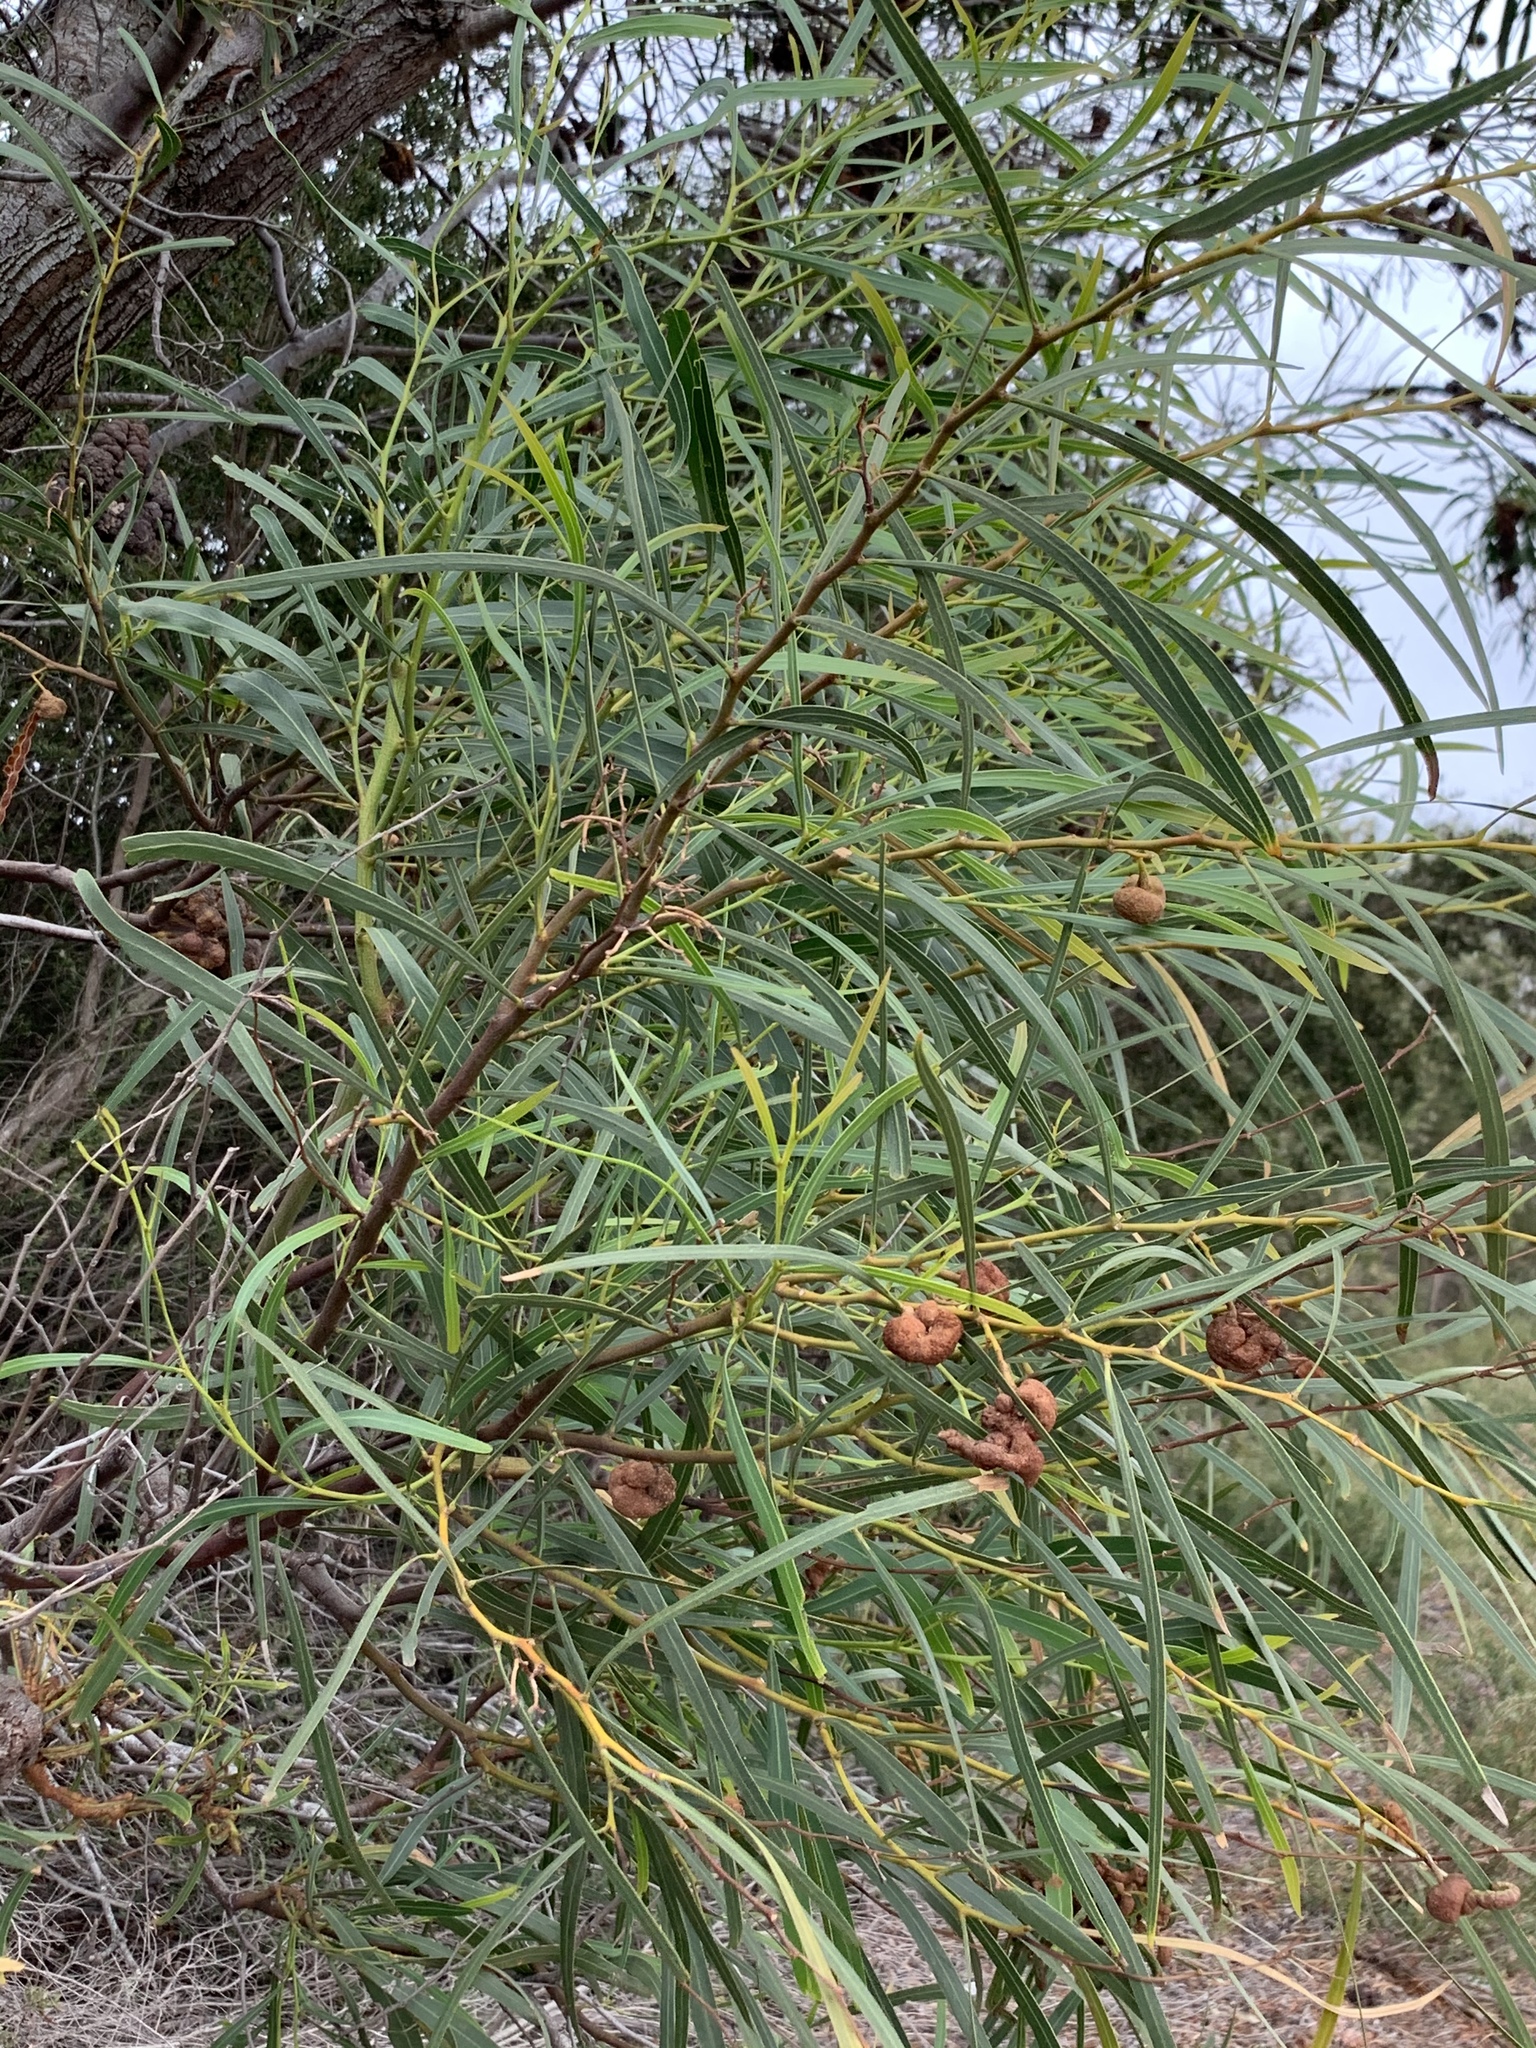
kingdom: Plantae
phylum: Tracheophyta
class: Magnoliopsida
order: Fabales
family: Fabaceae
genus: Acacia
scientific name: Acacia saligna
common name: Orange wattle
